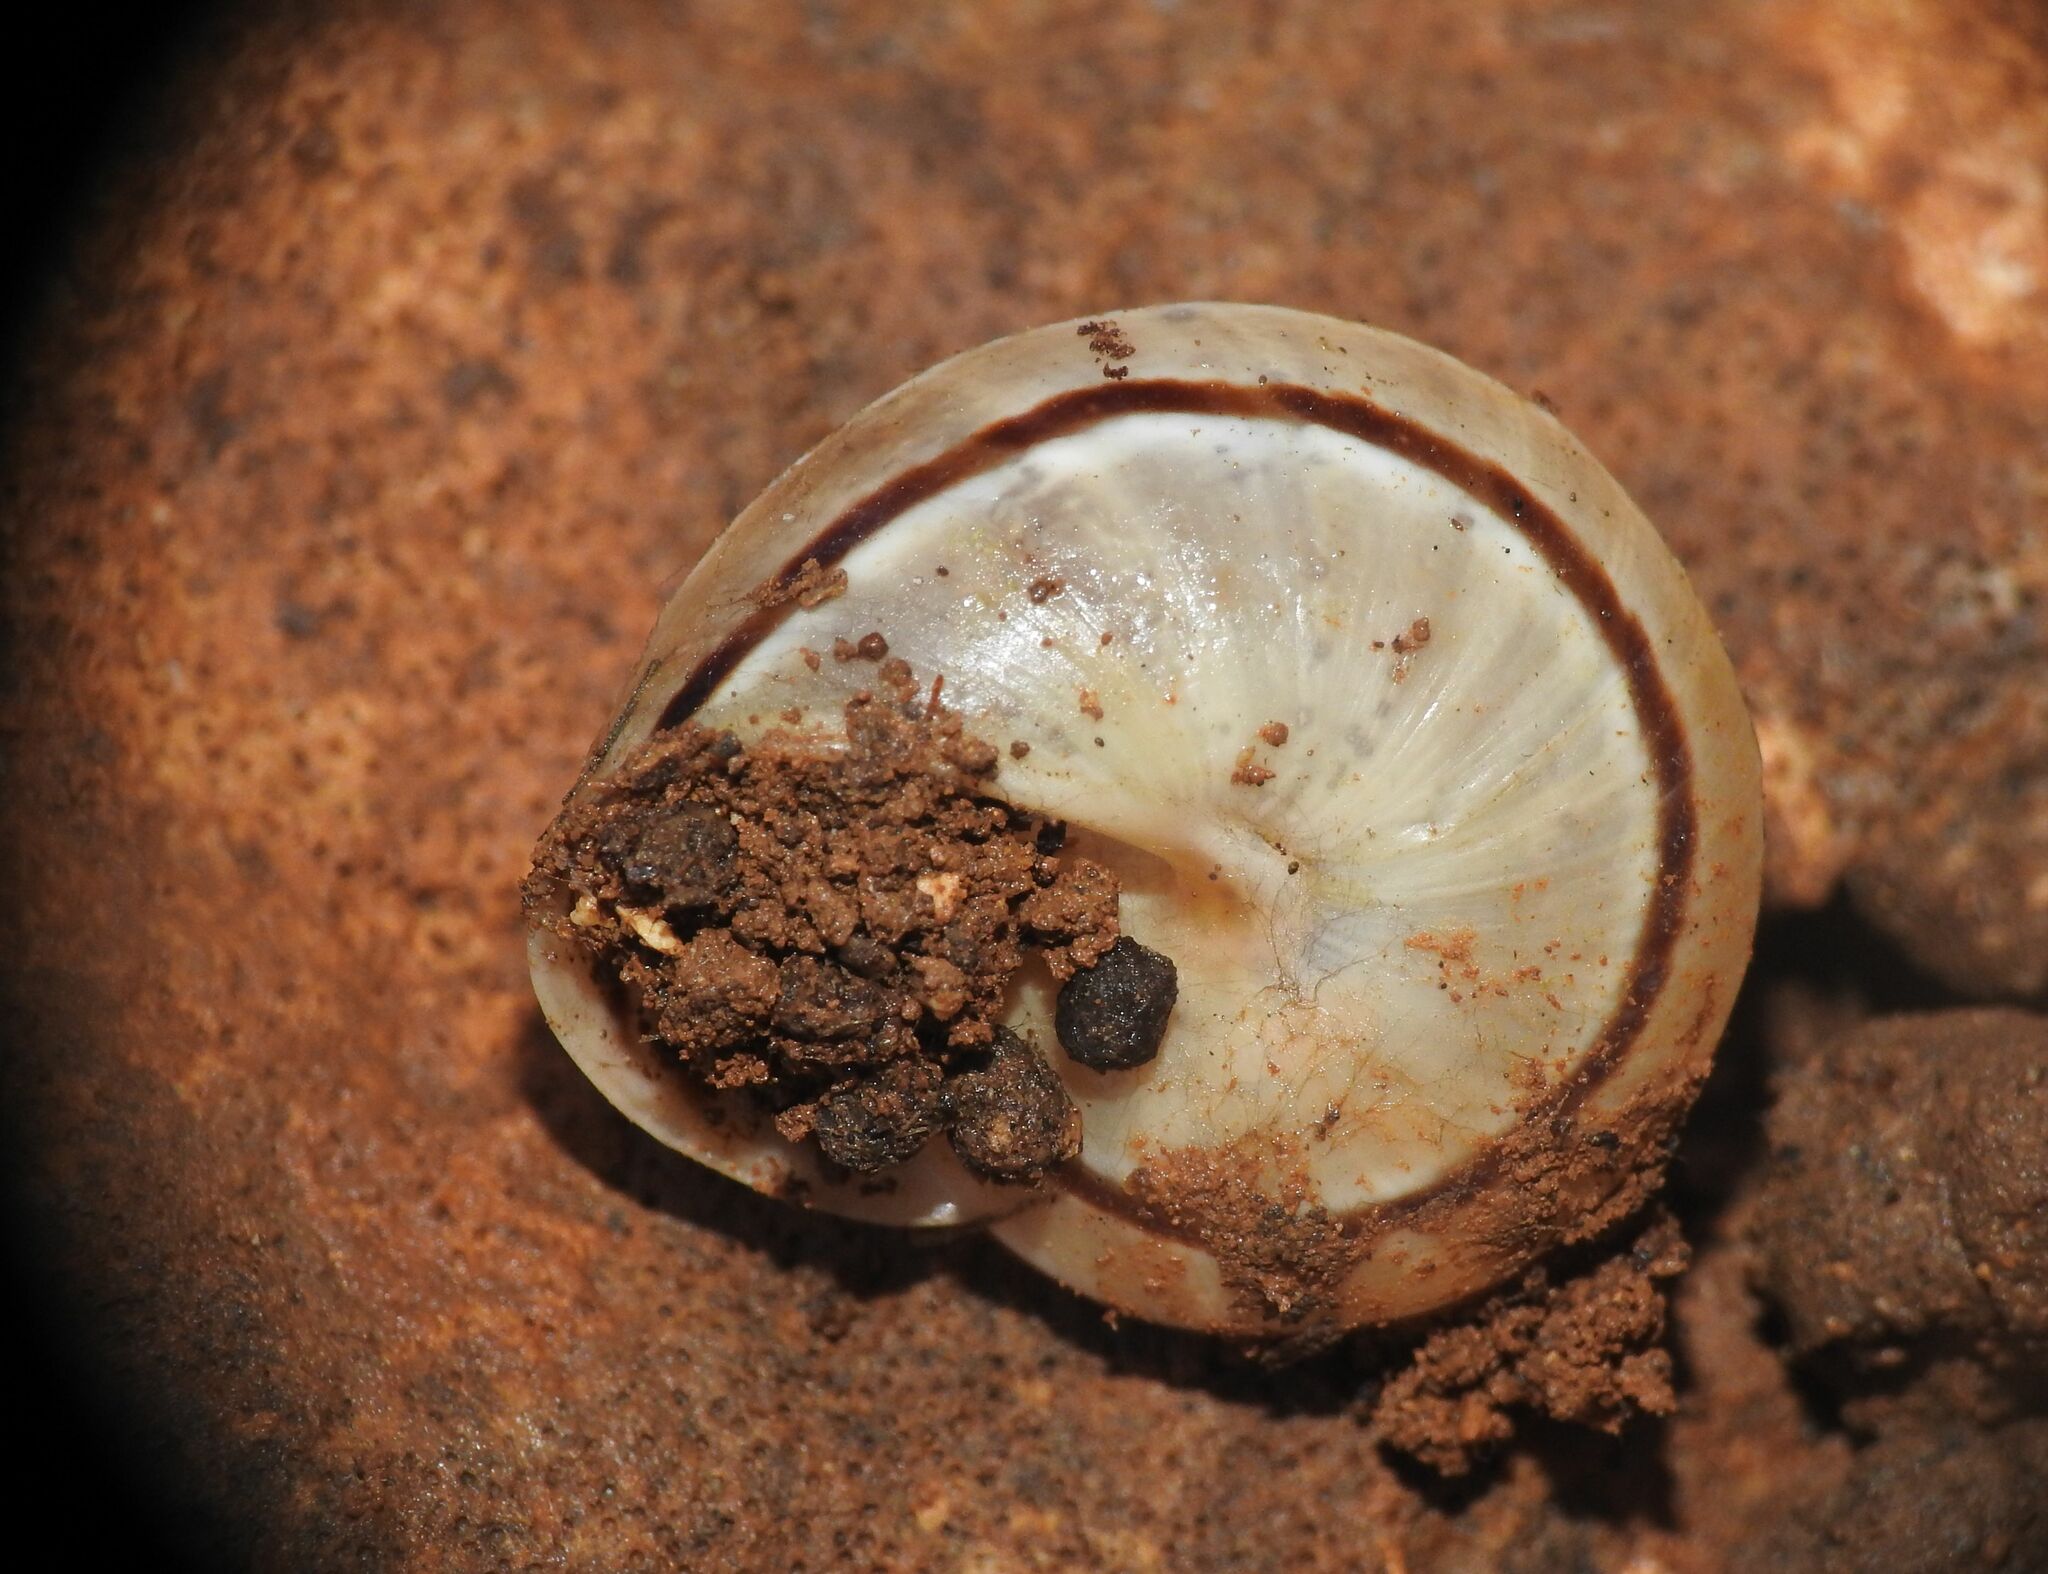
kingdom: Animalia
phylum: Mollusca
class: Gastropoda
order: Stylommatophora
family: Helicidae
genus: Pseudotachea
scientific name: Pseudotachea splendida
